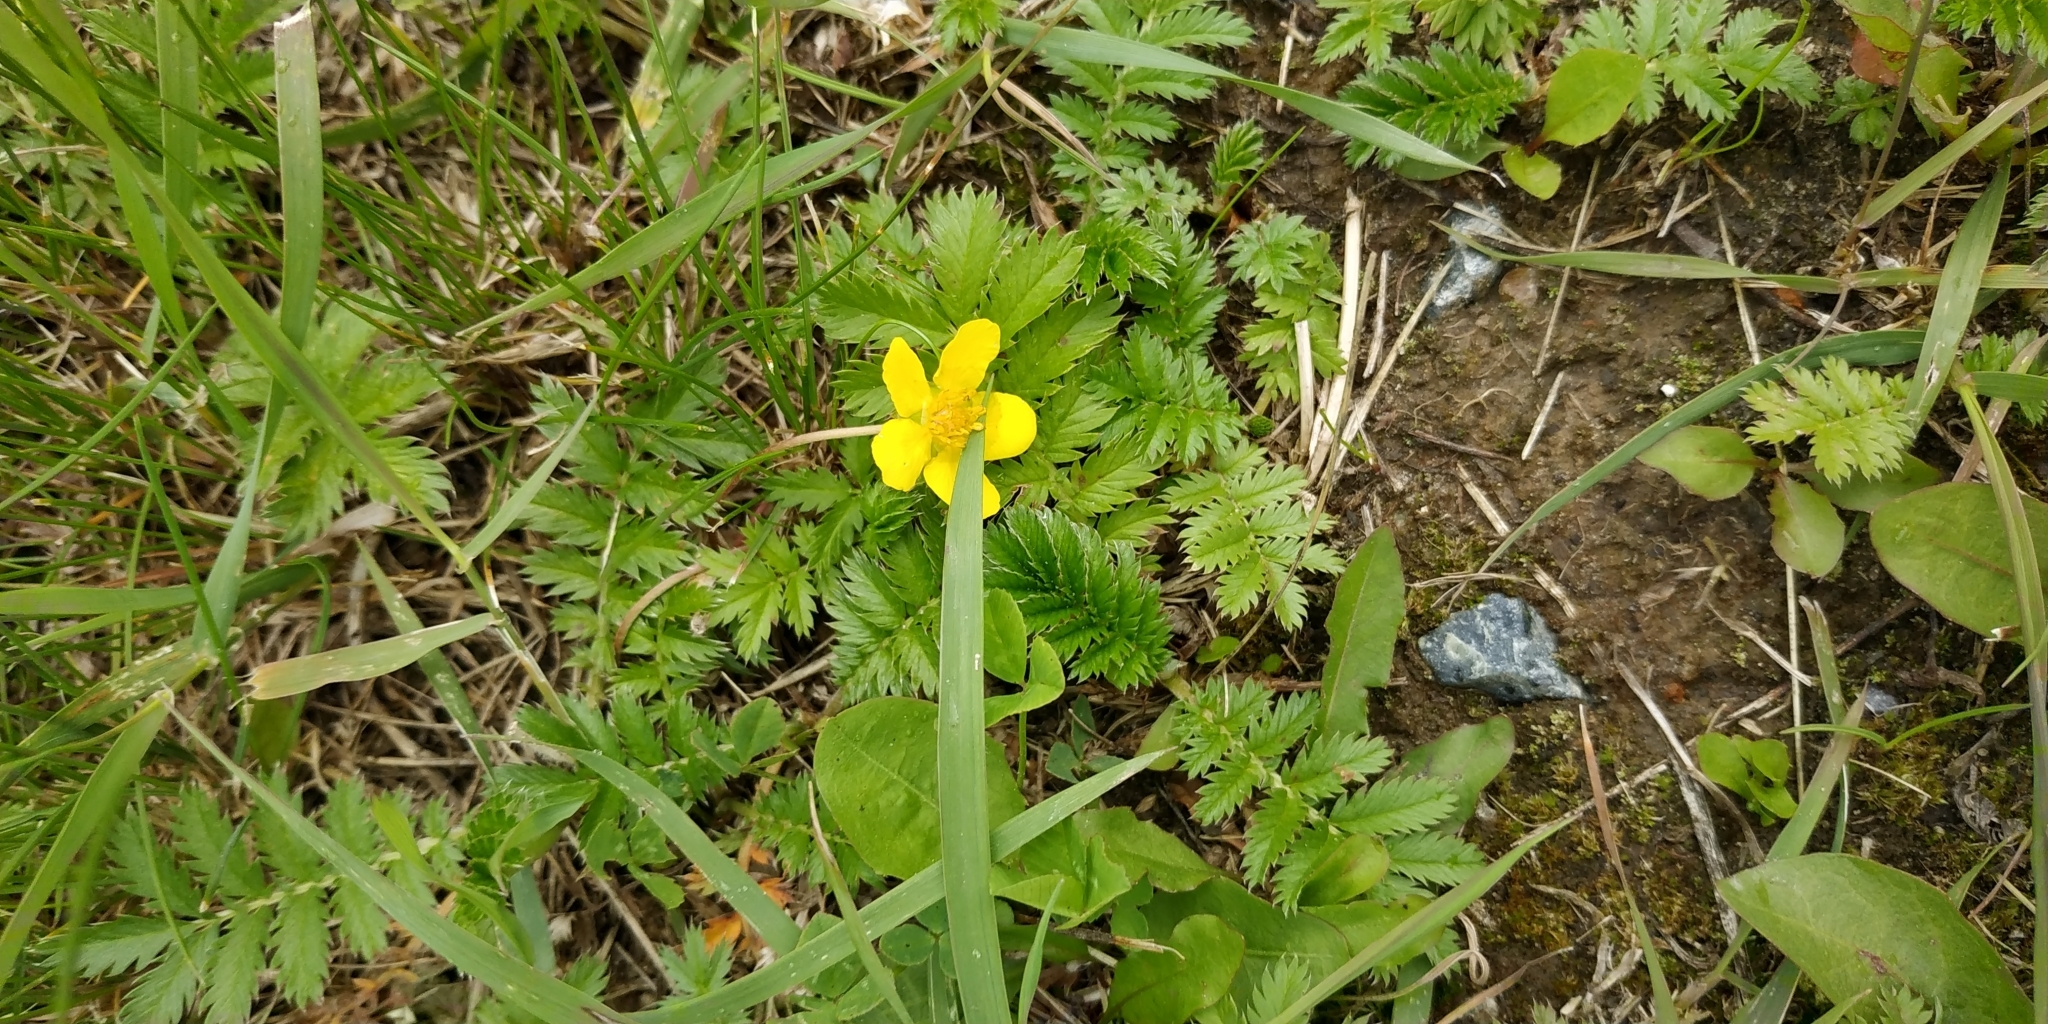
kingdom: Plantae
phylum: Tracheophyta
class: Magnoliopsida
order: Rosales
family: Rosaceae
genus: Argentina
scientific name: Argentina anserina
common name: Common silverweed
